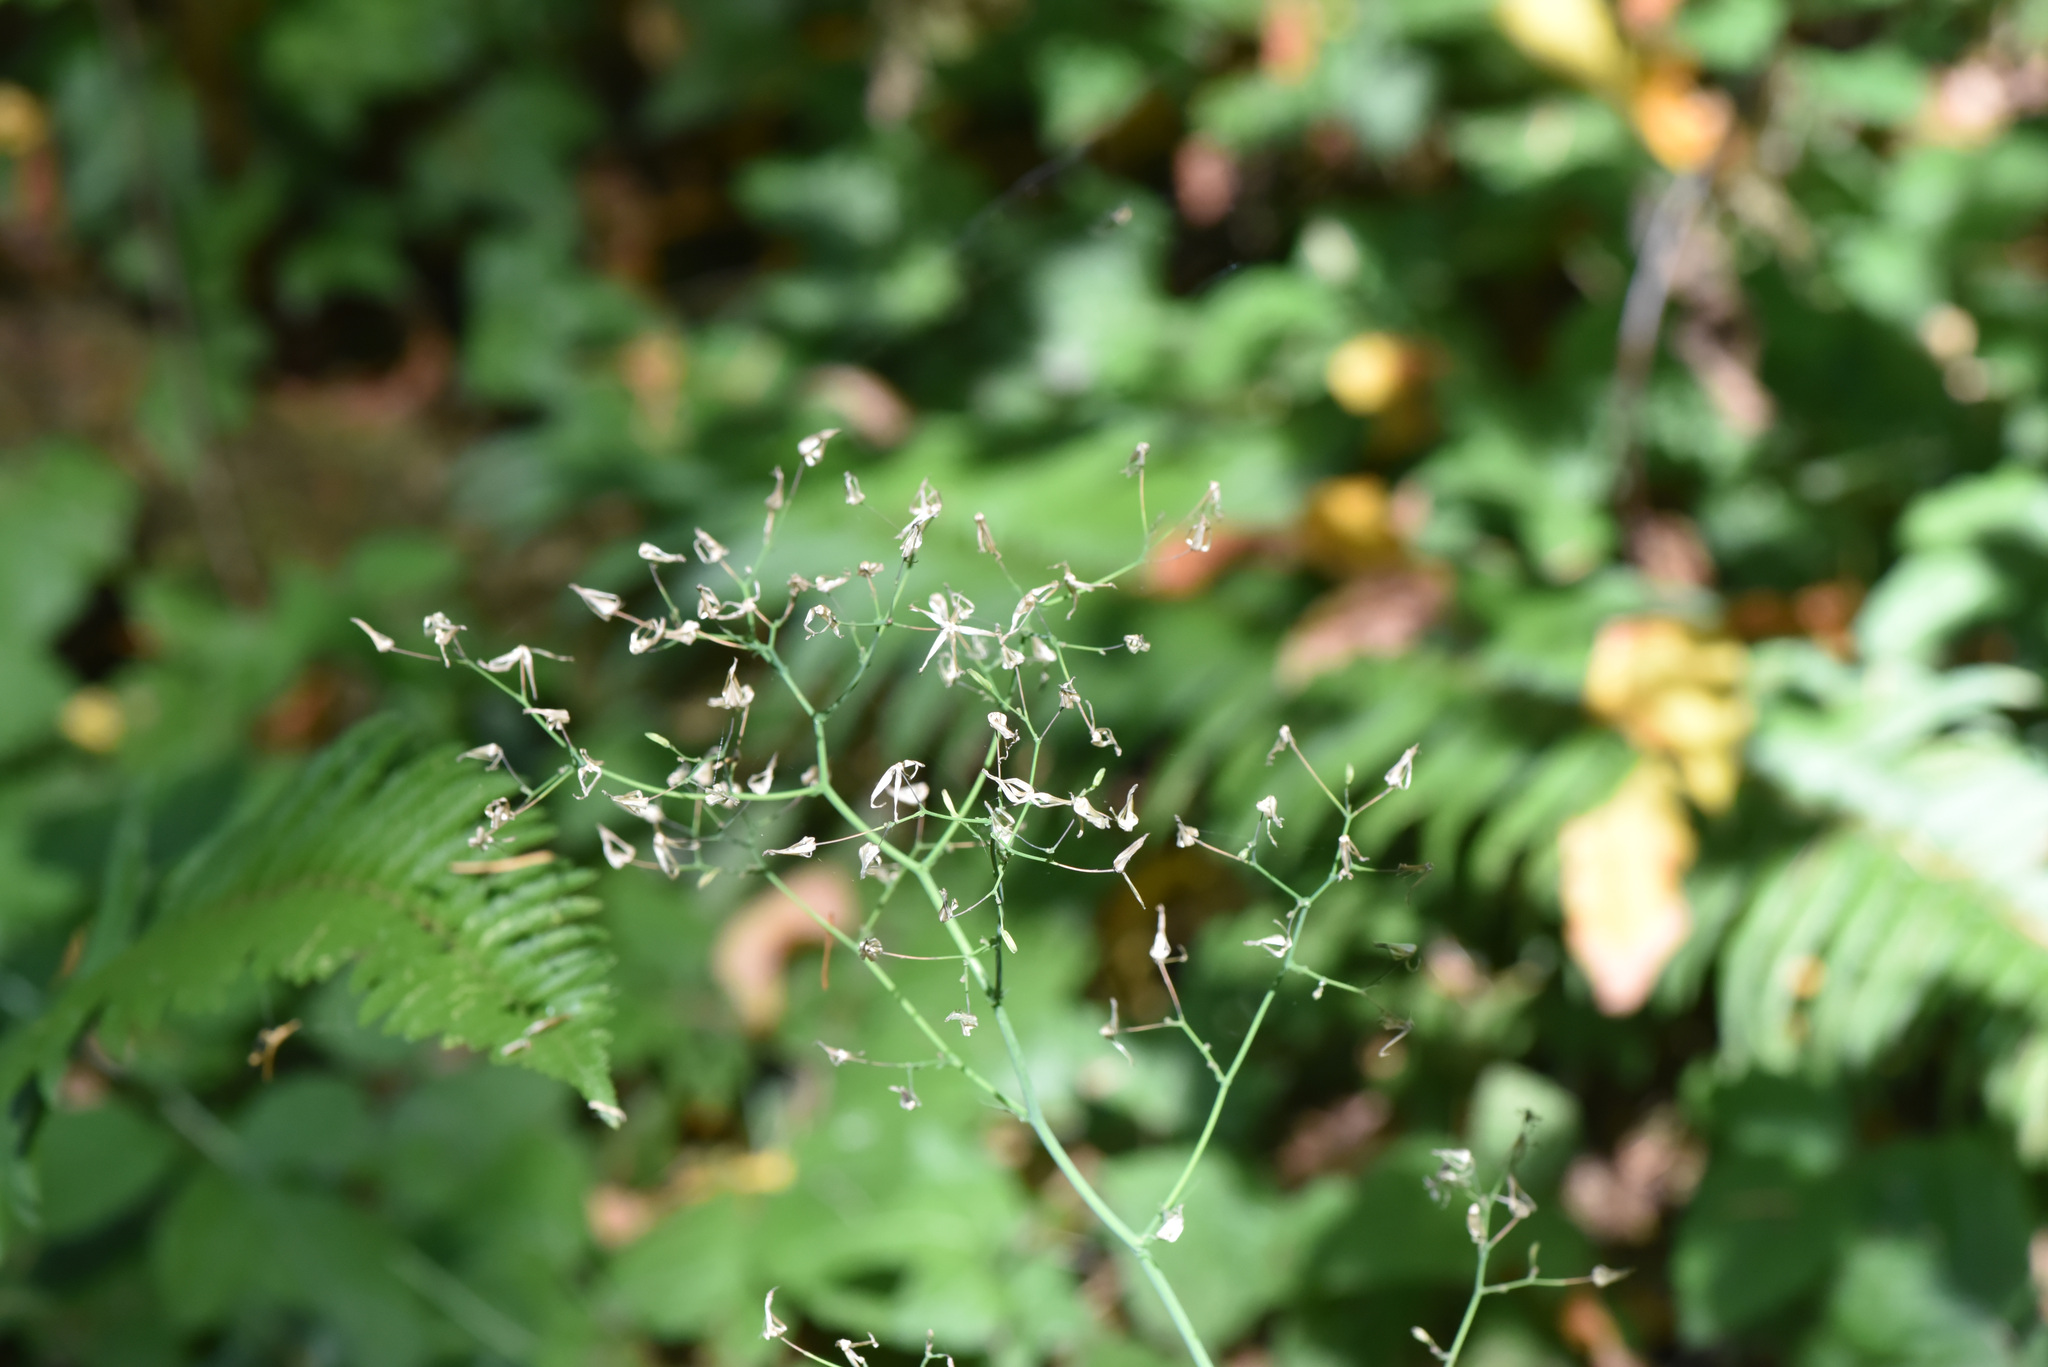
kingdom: Plantae
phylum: Tracheophyta
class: Magnoliopsida
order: Asterales
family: Asteraceae
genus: Mycelis
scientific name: Mycelis muralis
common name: Wall lettuce
